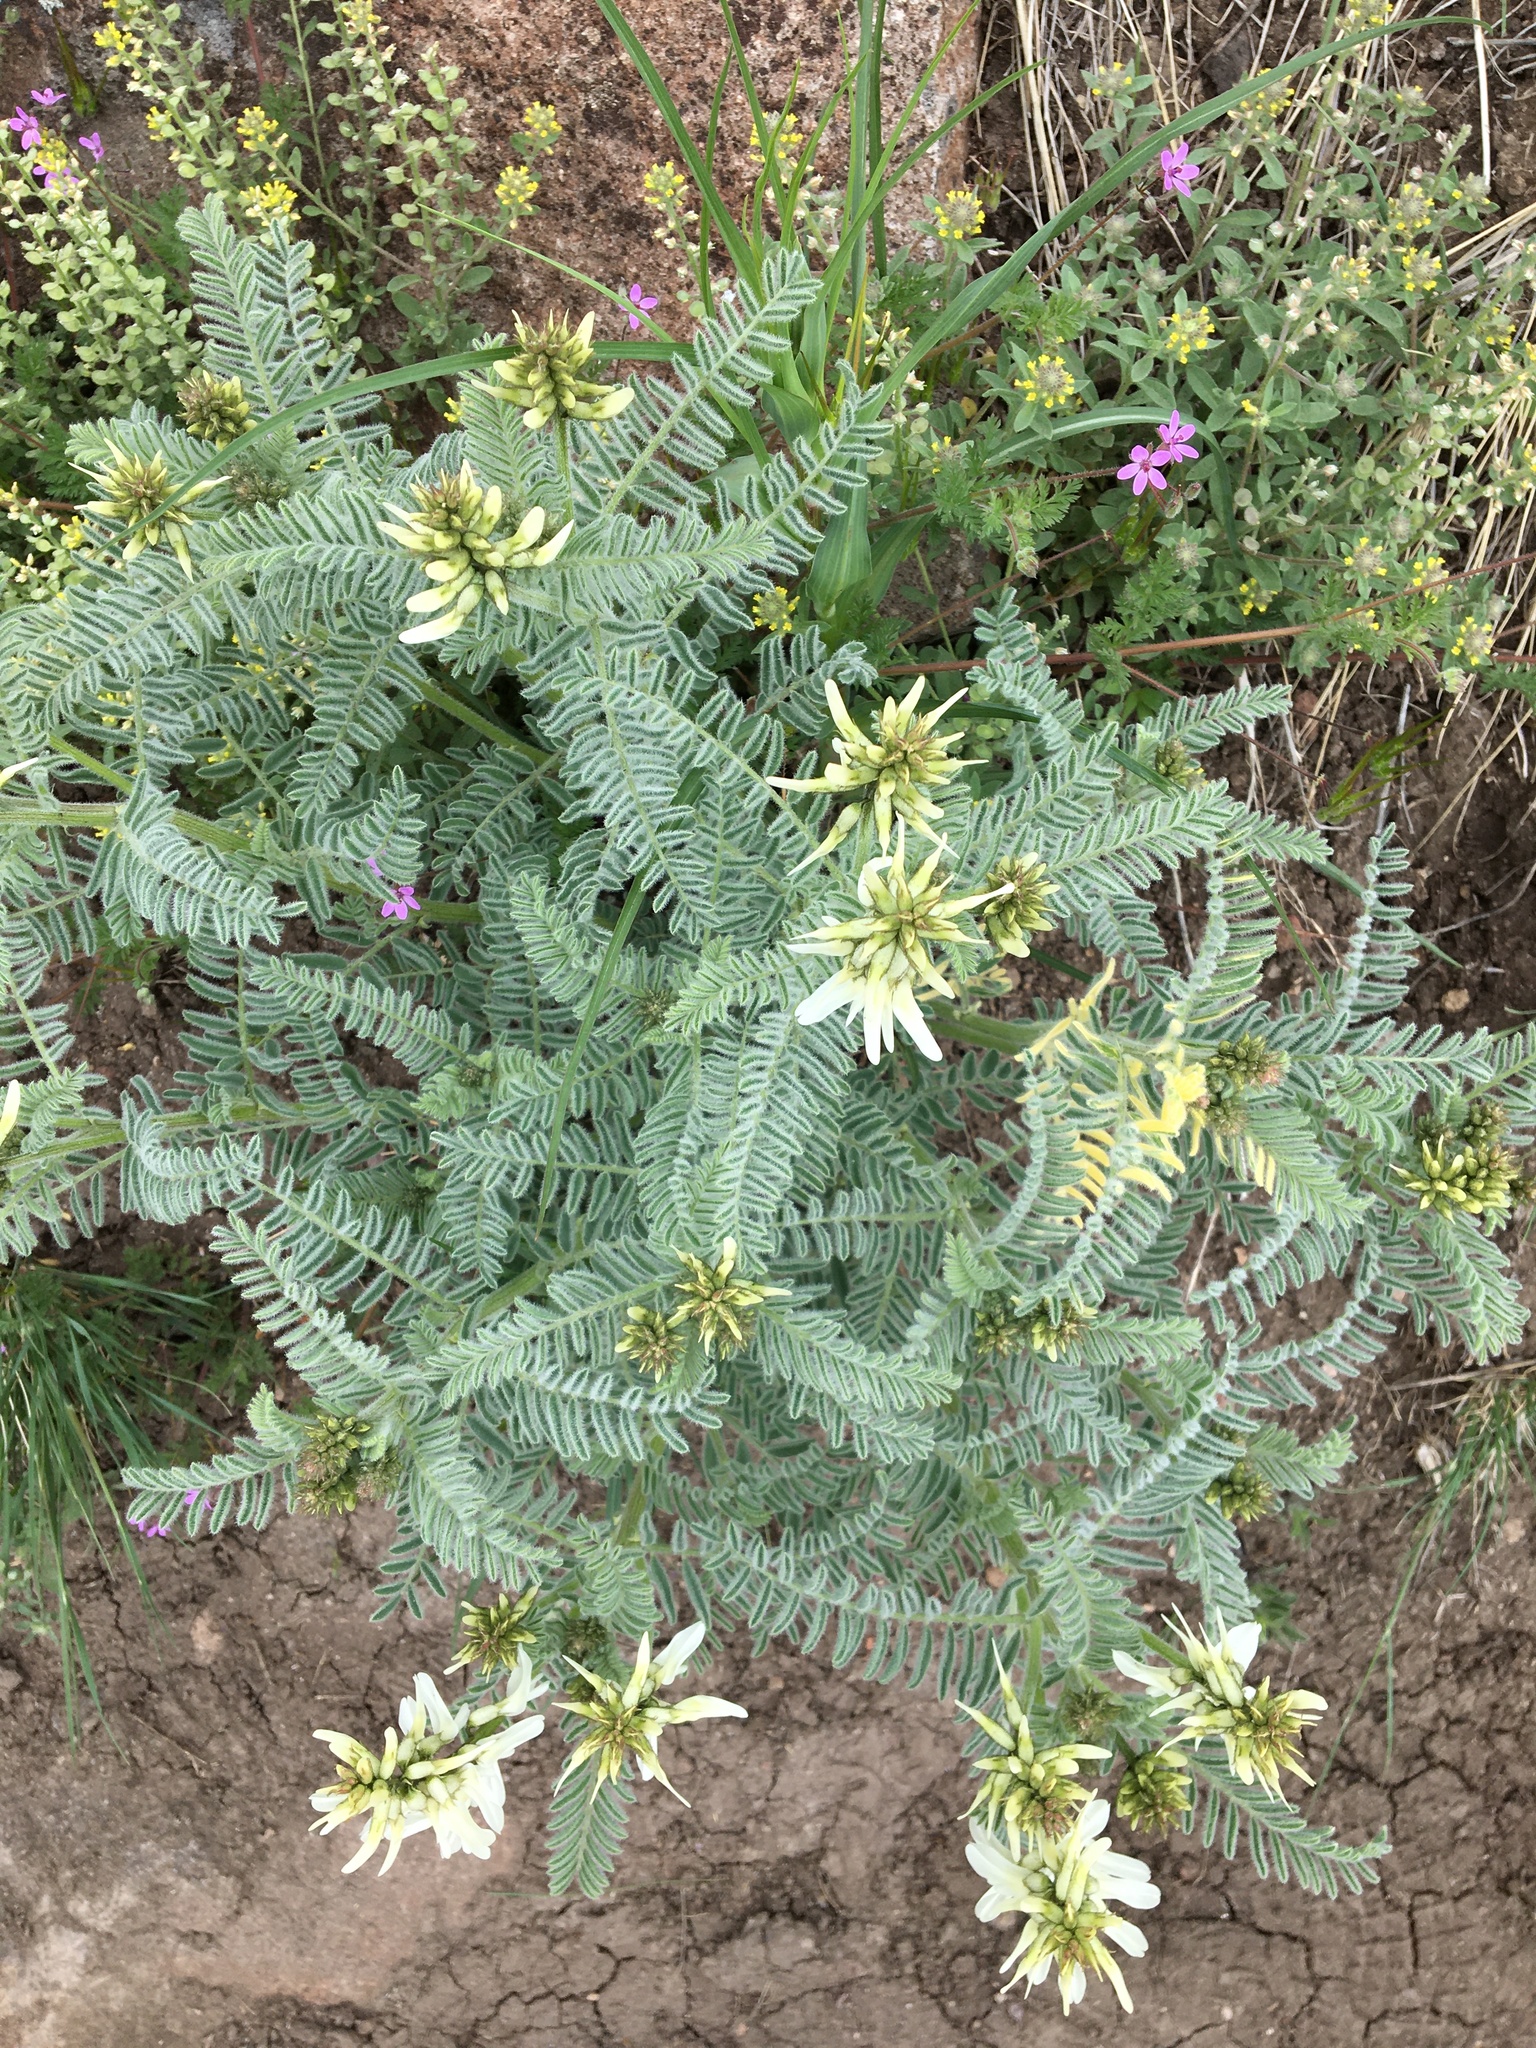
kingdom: Plantae
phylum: Tracheophyta
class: Magnoliopsida
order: Fabales
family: Fabaceae
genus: Astragalus
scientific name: Astragalus drummondii
